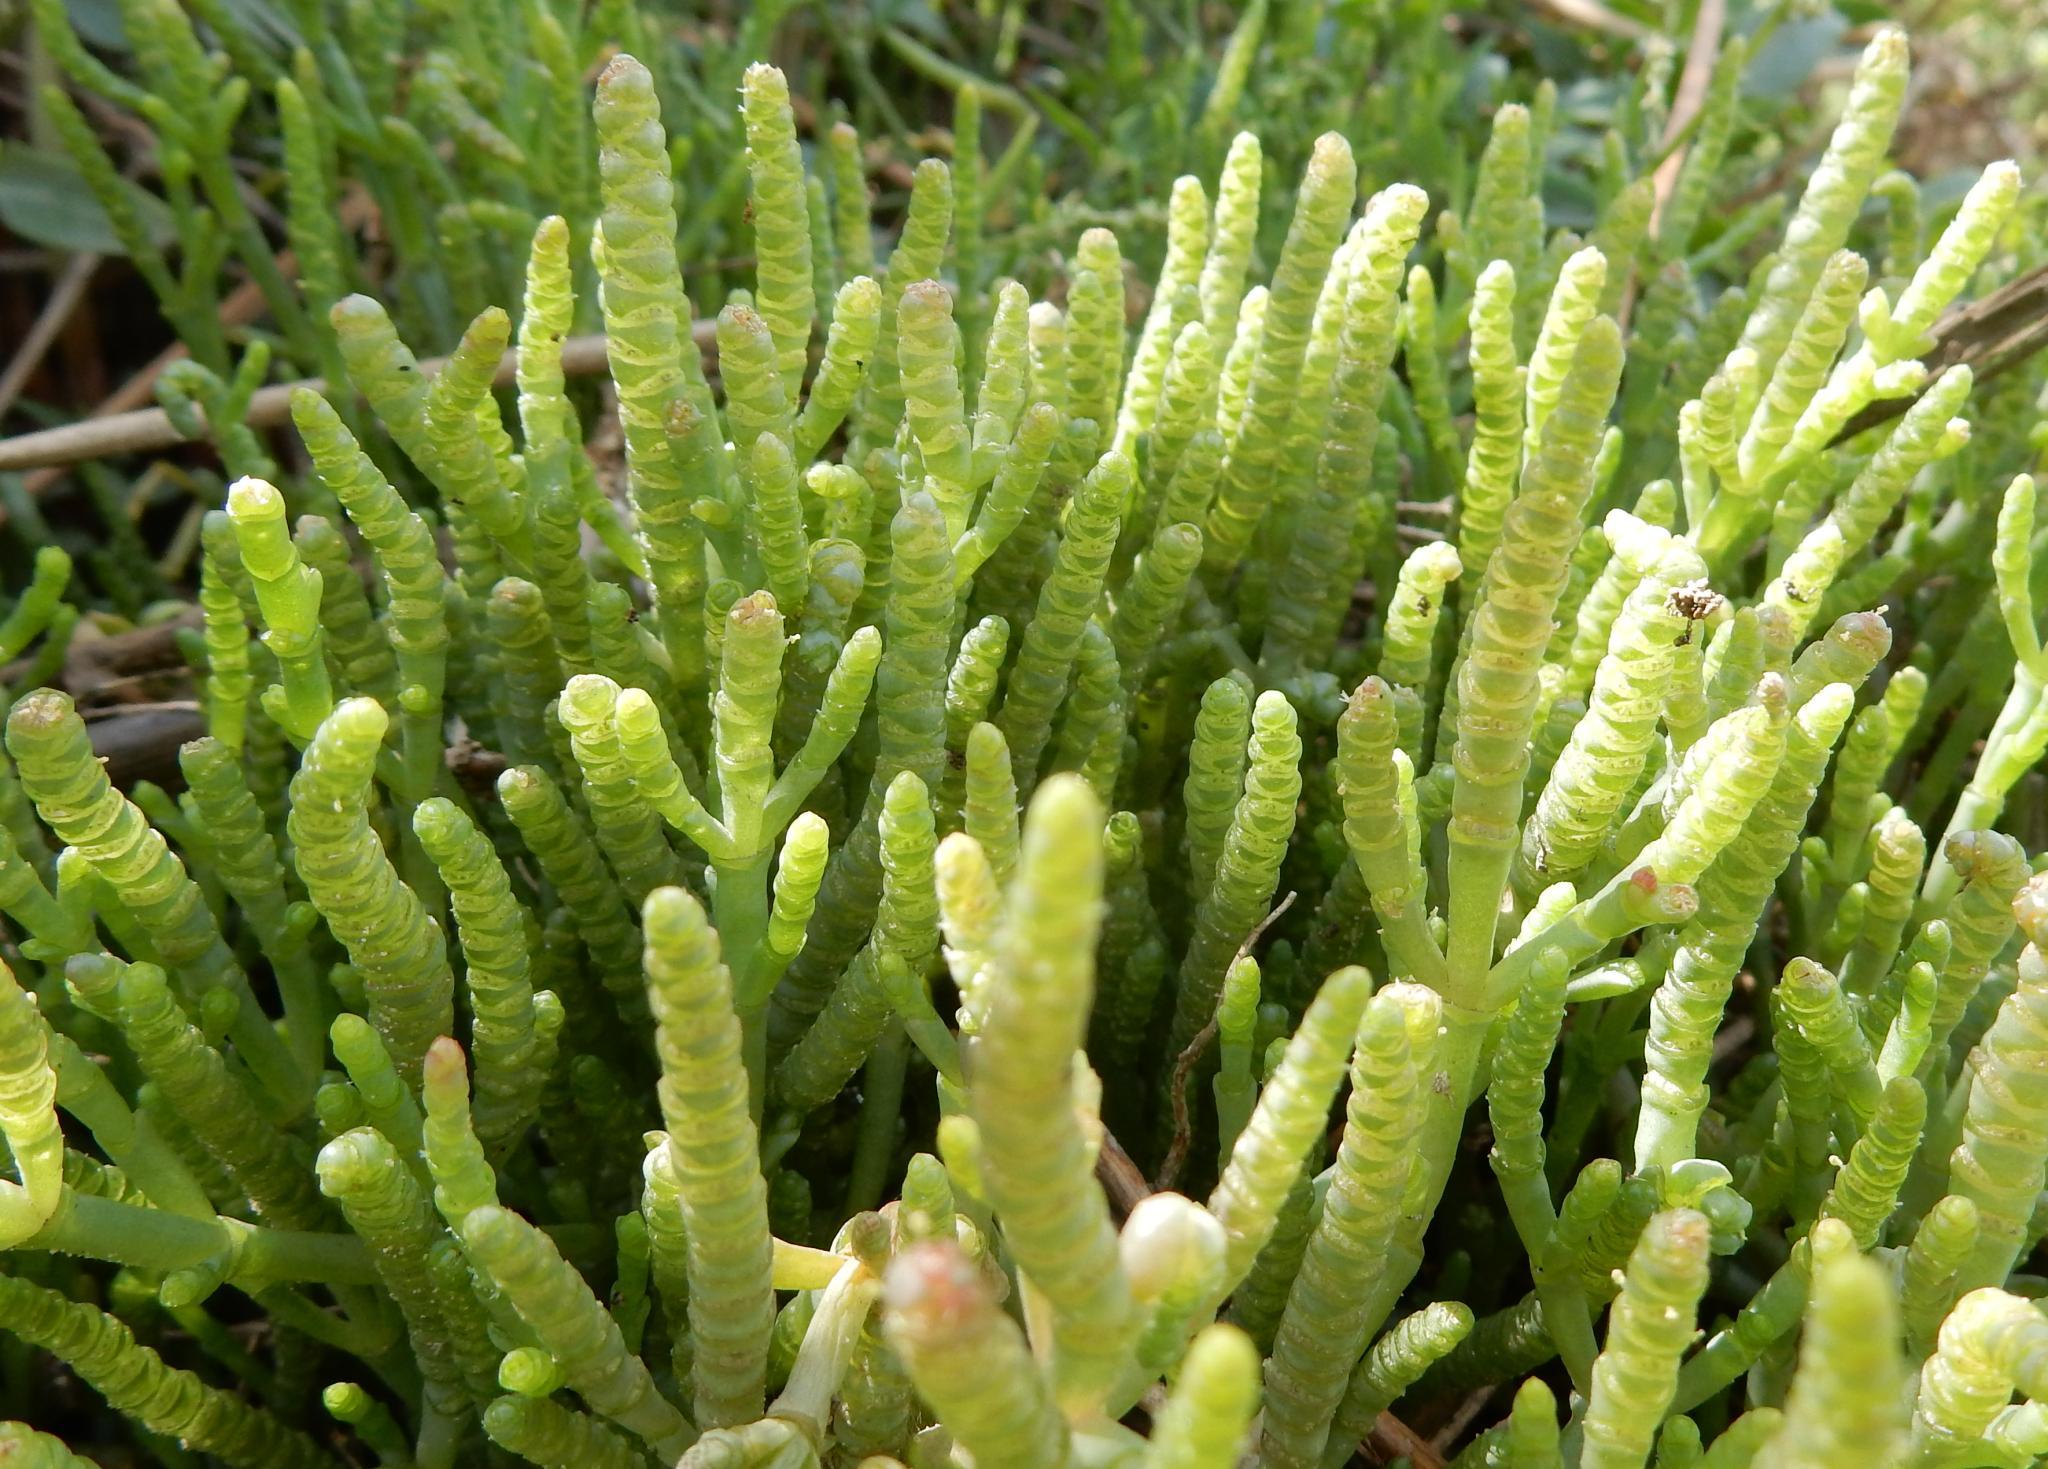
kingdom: Plantae
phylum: Tracheophyta
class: Magnoliopsida
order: Caryophyllales
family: Amaranthaceae
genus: Salicornia
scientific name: Salicornia natalensis
